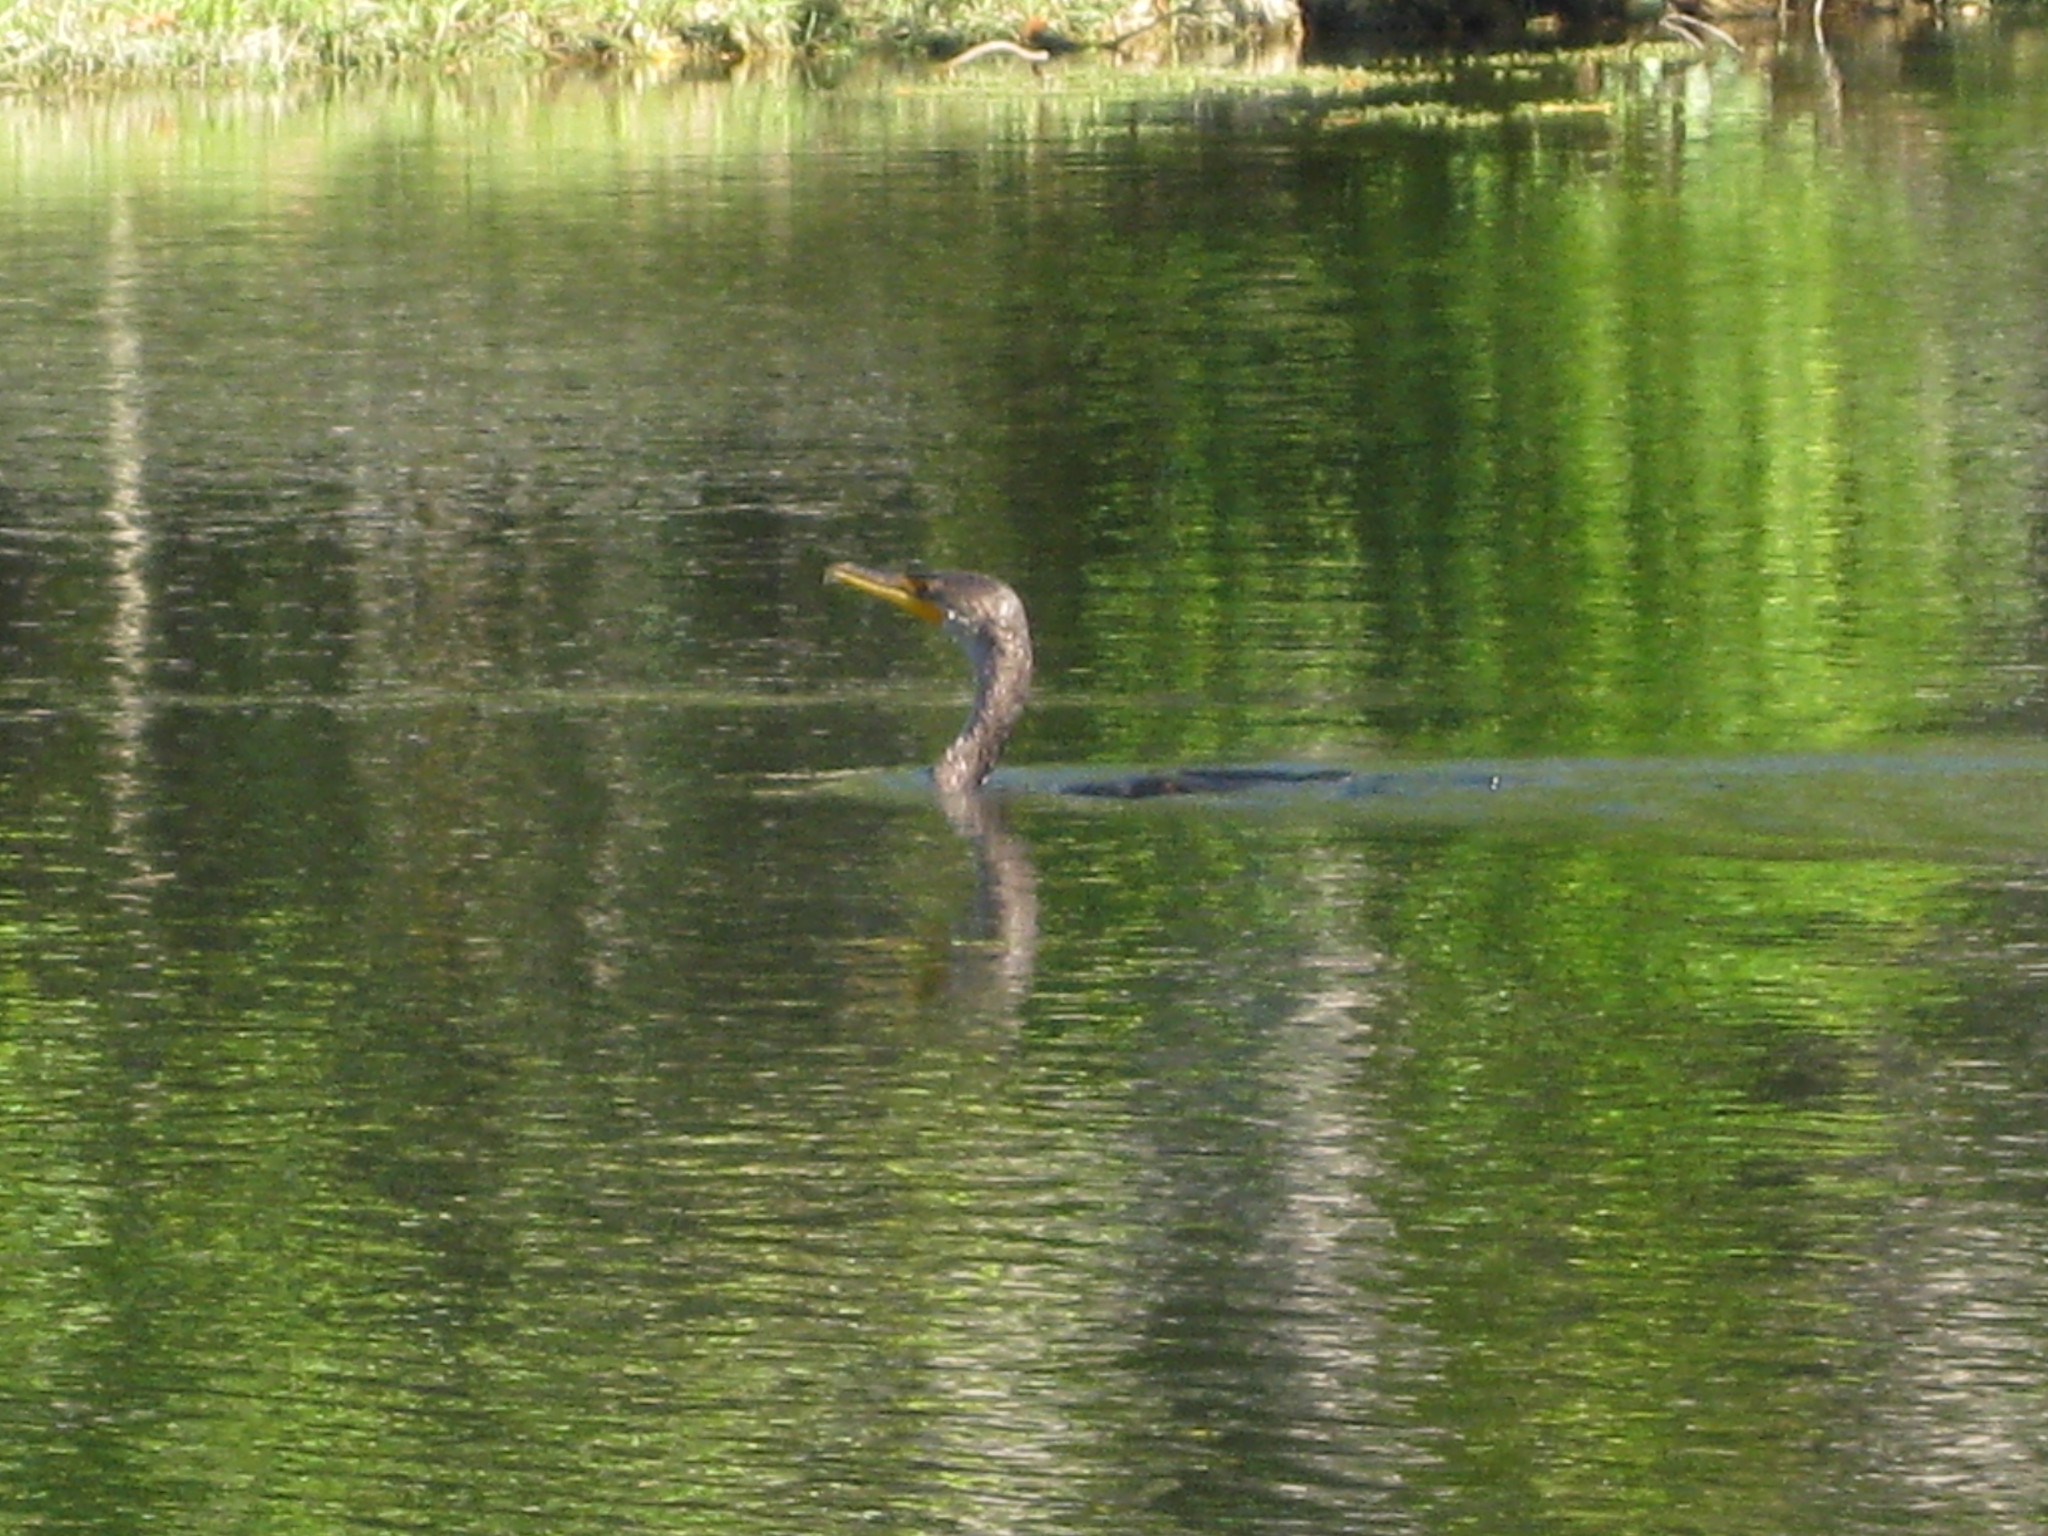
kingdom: Animalia
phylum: Chordata
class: Aves
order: Suliformes
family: Phalacrocoracidae
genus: Phalacrocorax
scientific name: Phalacrocorax auritus
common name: Double-crested cormorant
